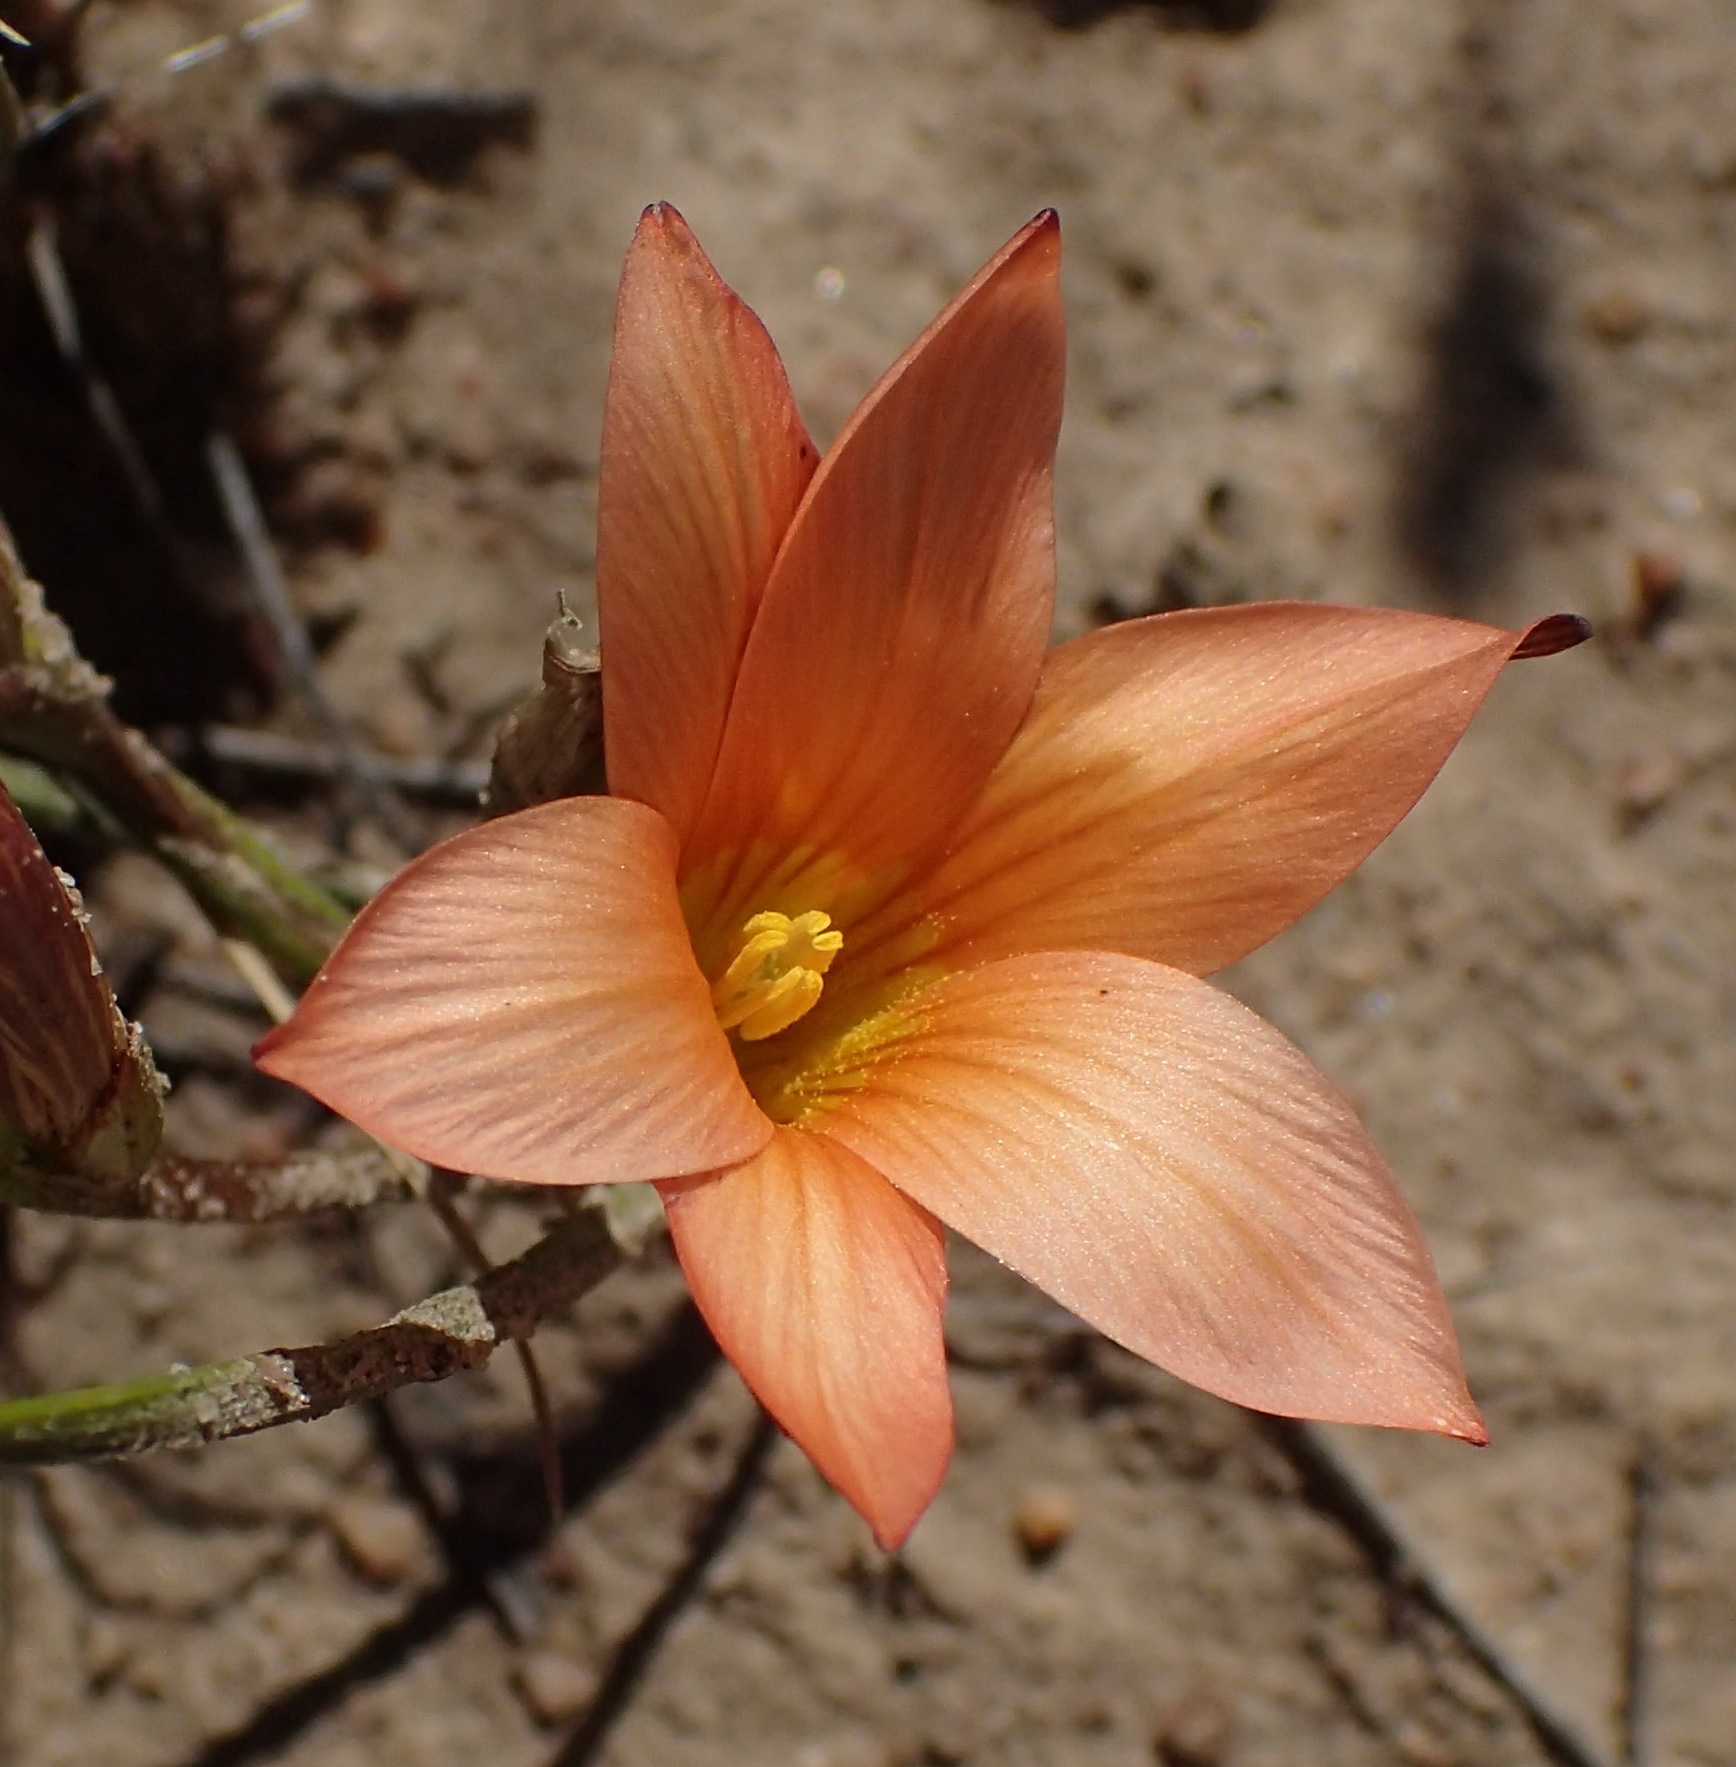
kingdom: Plantae
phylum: Tracheophyta
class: Liliopsida
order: Asparagales
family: Iridaceae
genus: Romulea
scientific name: Romulea setifolia
